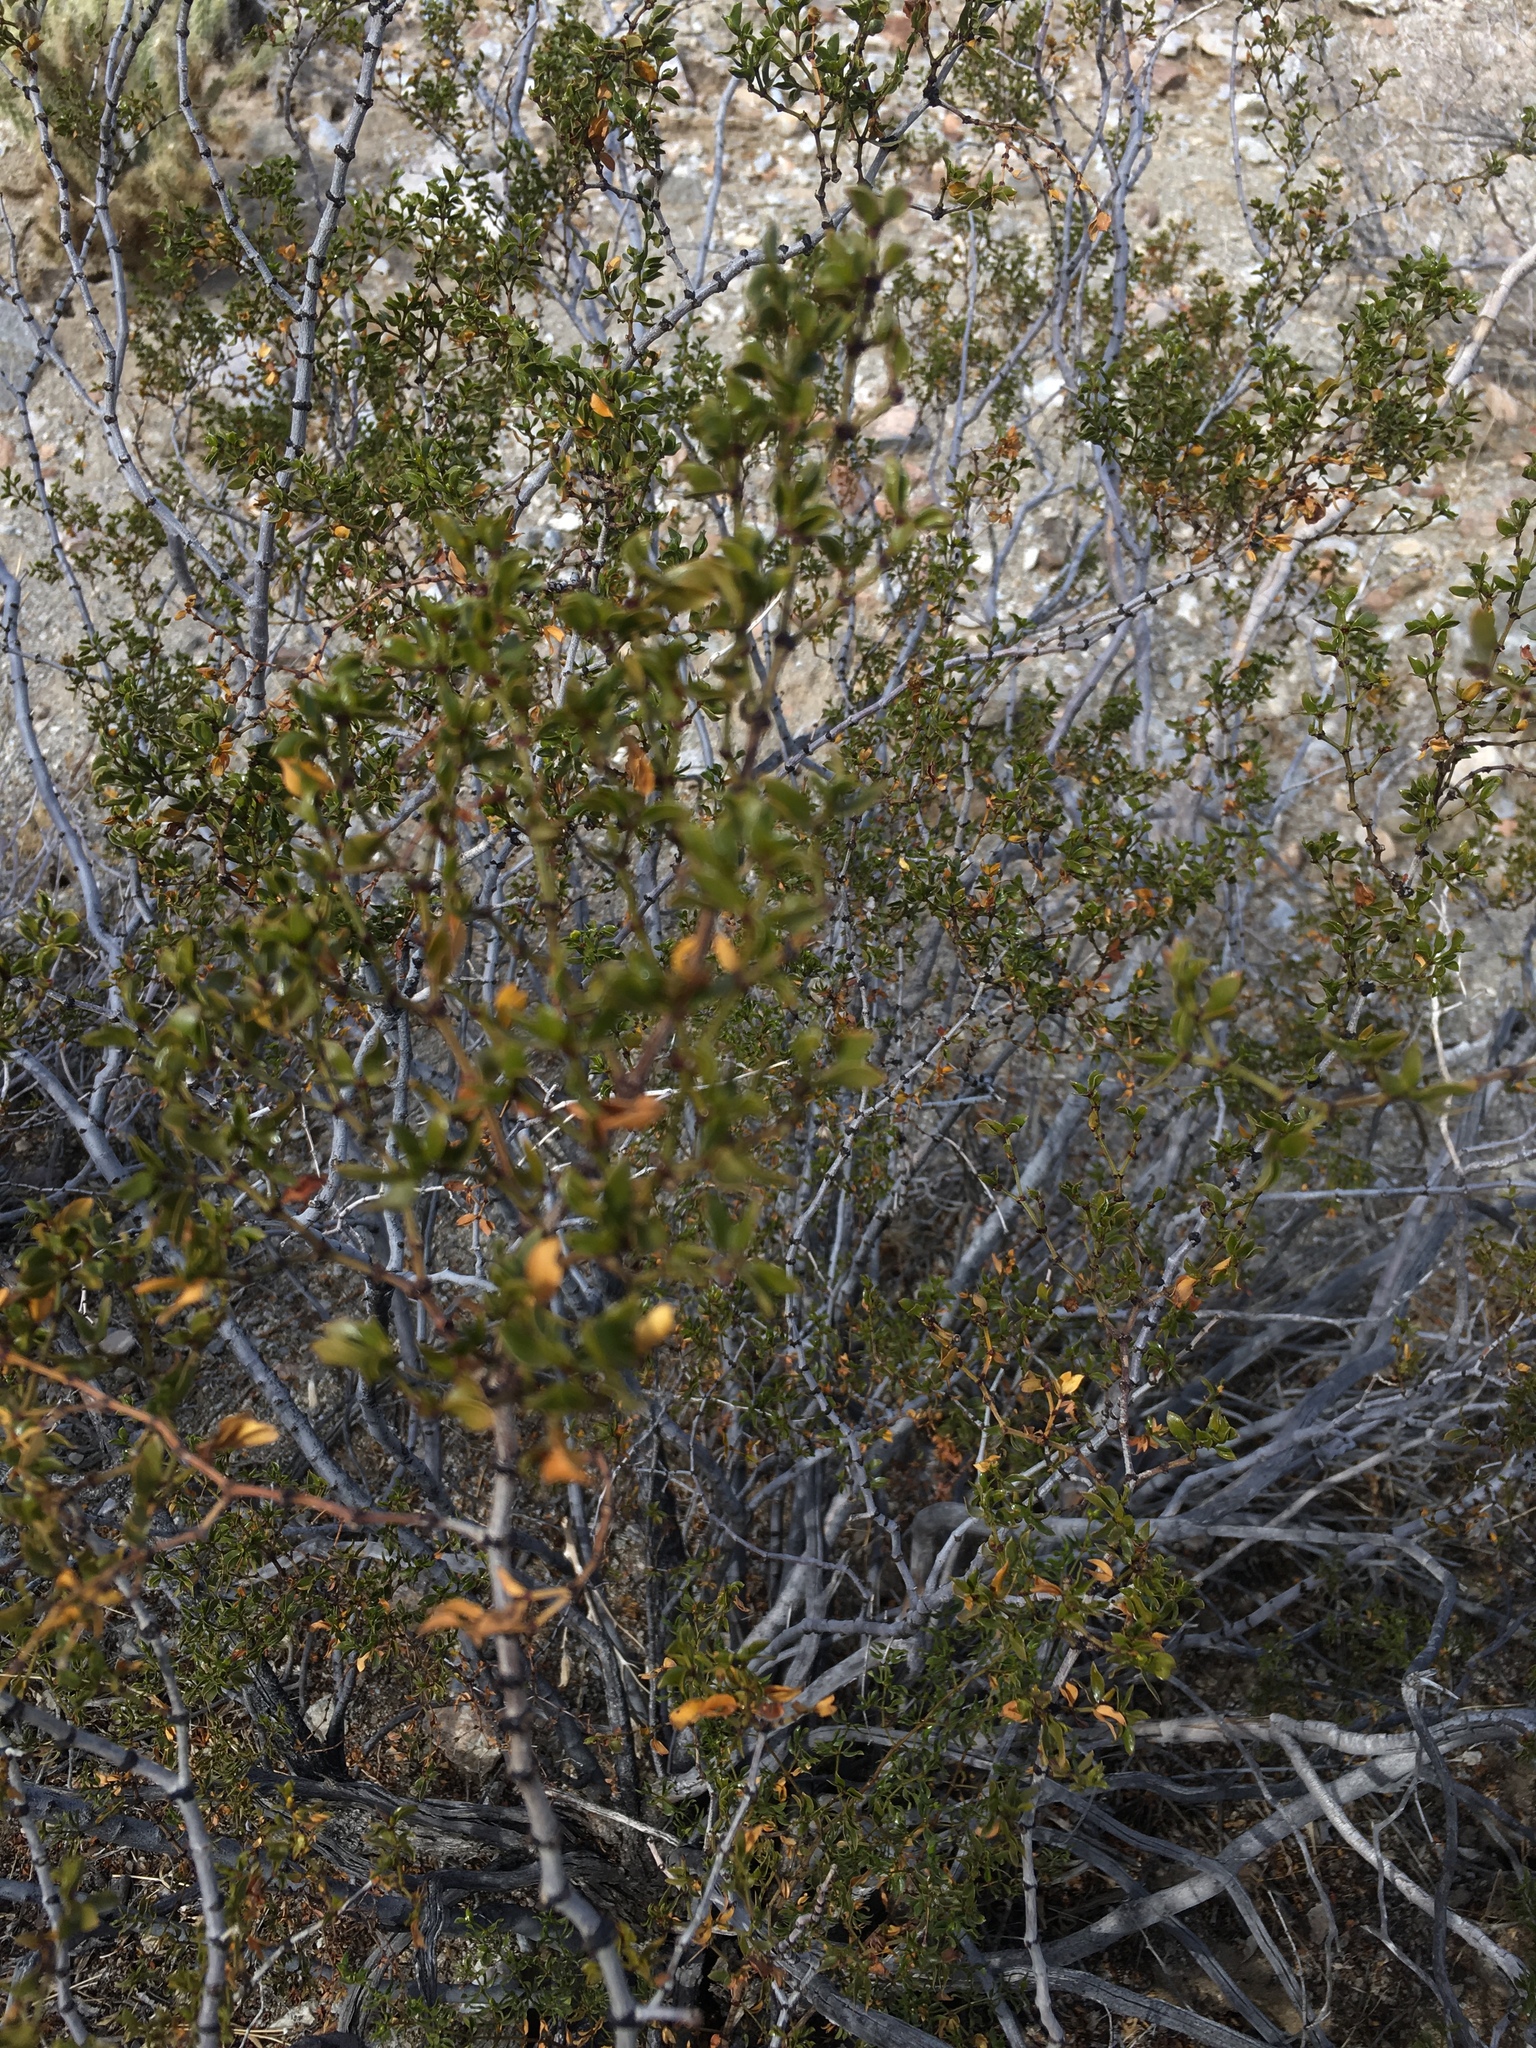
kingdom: Plantae
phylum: Tracheophyta
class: Magnoliopsida
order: Zygophyllales
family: Zygophyllaceae
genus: Larrea
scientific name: Larrea tridentata
